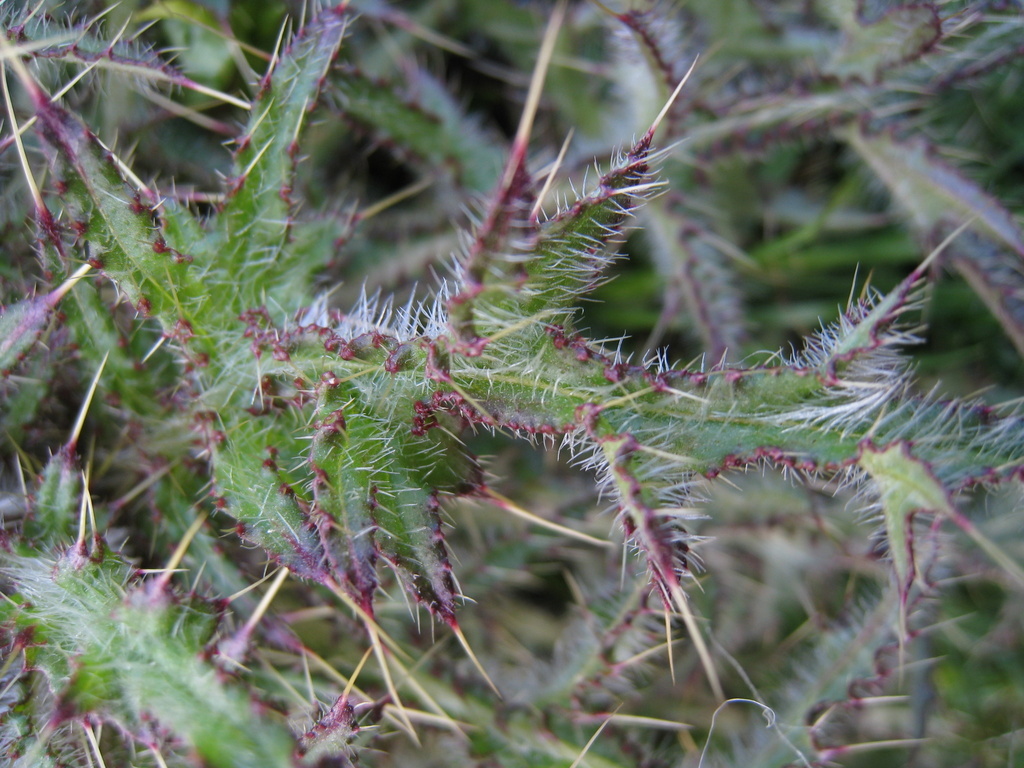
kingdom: Plantae
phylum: Tracheophyta
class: Magnoliopsida
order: Asterales
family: Asteraceae
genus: Cirsium
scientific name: Cirsium palustre
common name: Marsh thistle
